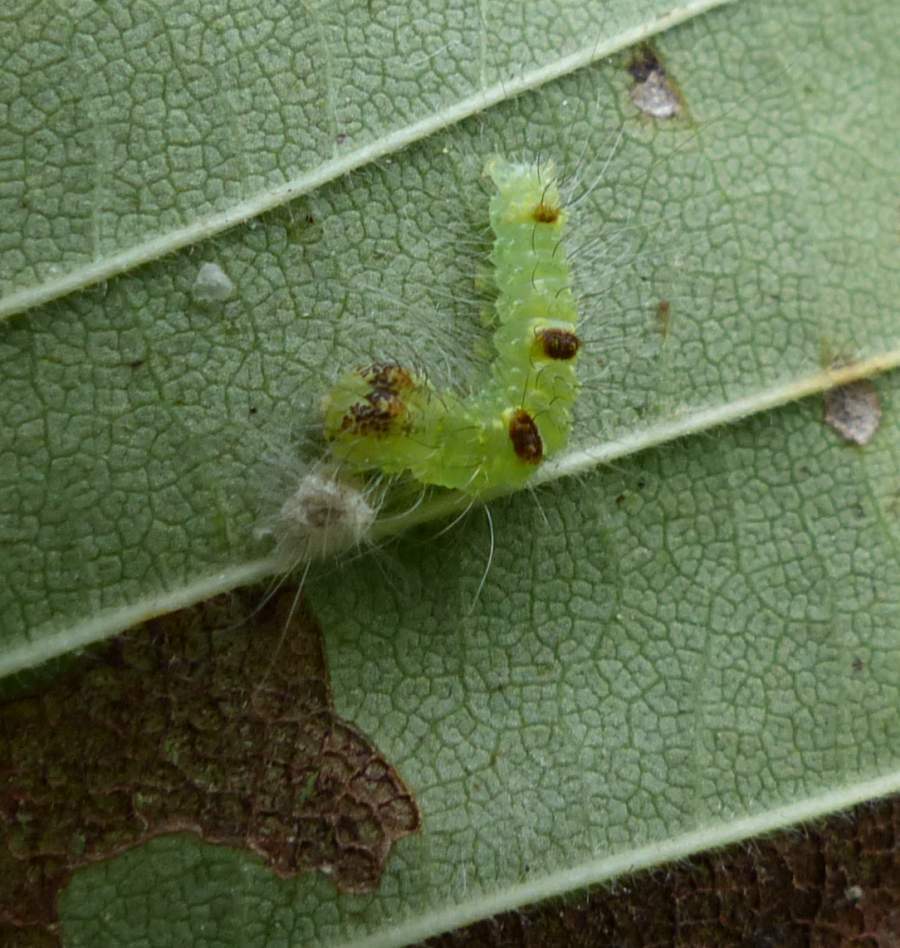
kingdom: Animalia
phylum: Arthropoda
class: Insecta
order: Lepidoptera
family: Noctuidae
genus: Acronicta
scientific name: Acronicta morula
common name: Ochre dagger
